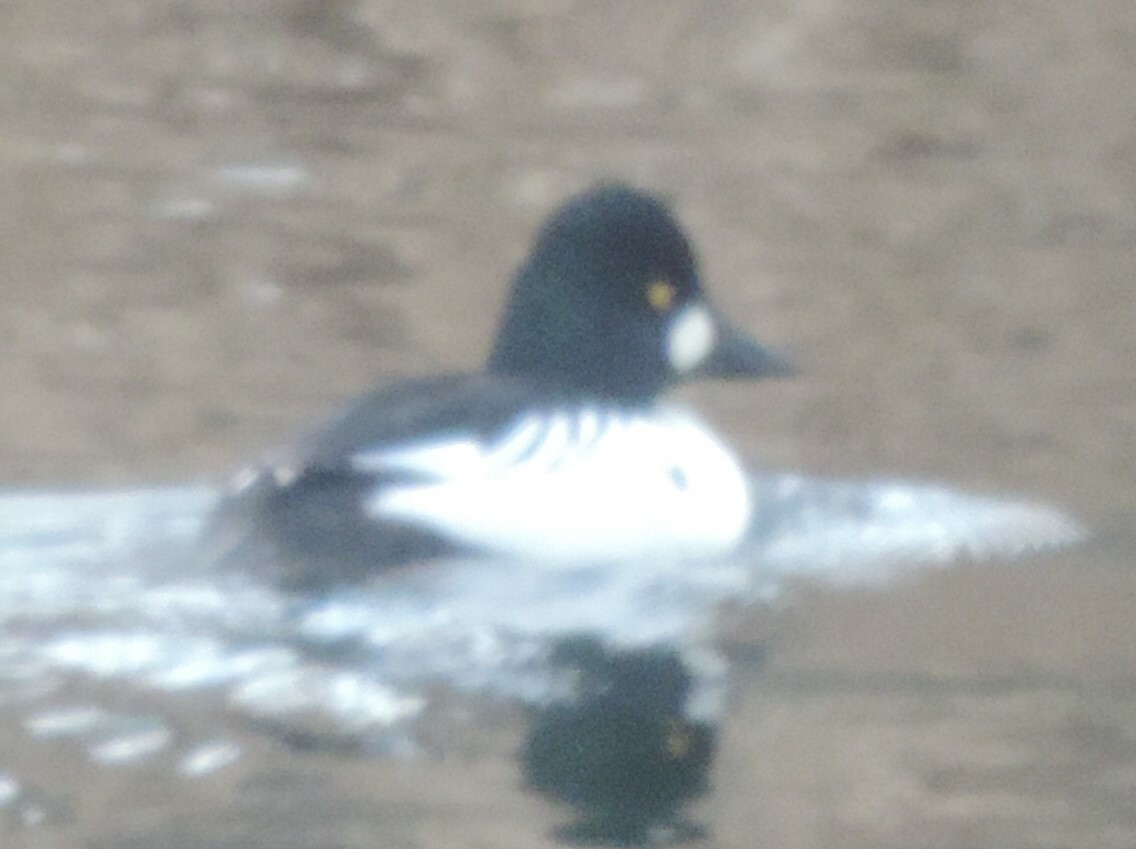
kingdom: Animalia
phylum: Chordata
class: Aves
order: Anseriformes
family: Anatidae
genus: Bucephala
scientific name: Bucephala clangula
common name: Common goldeneye
